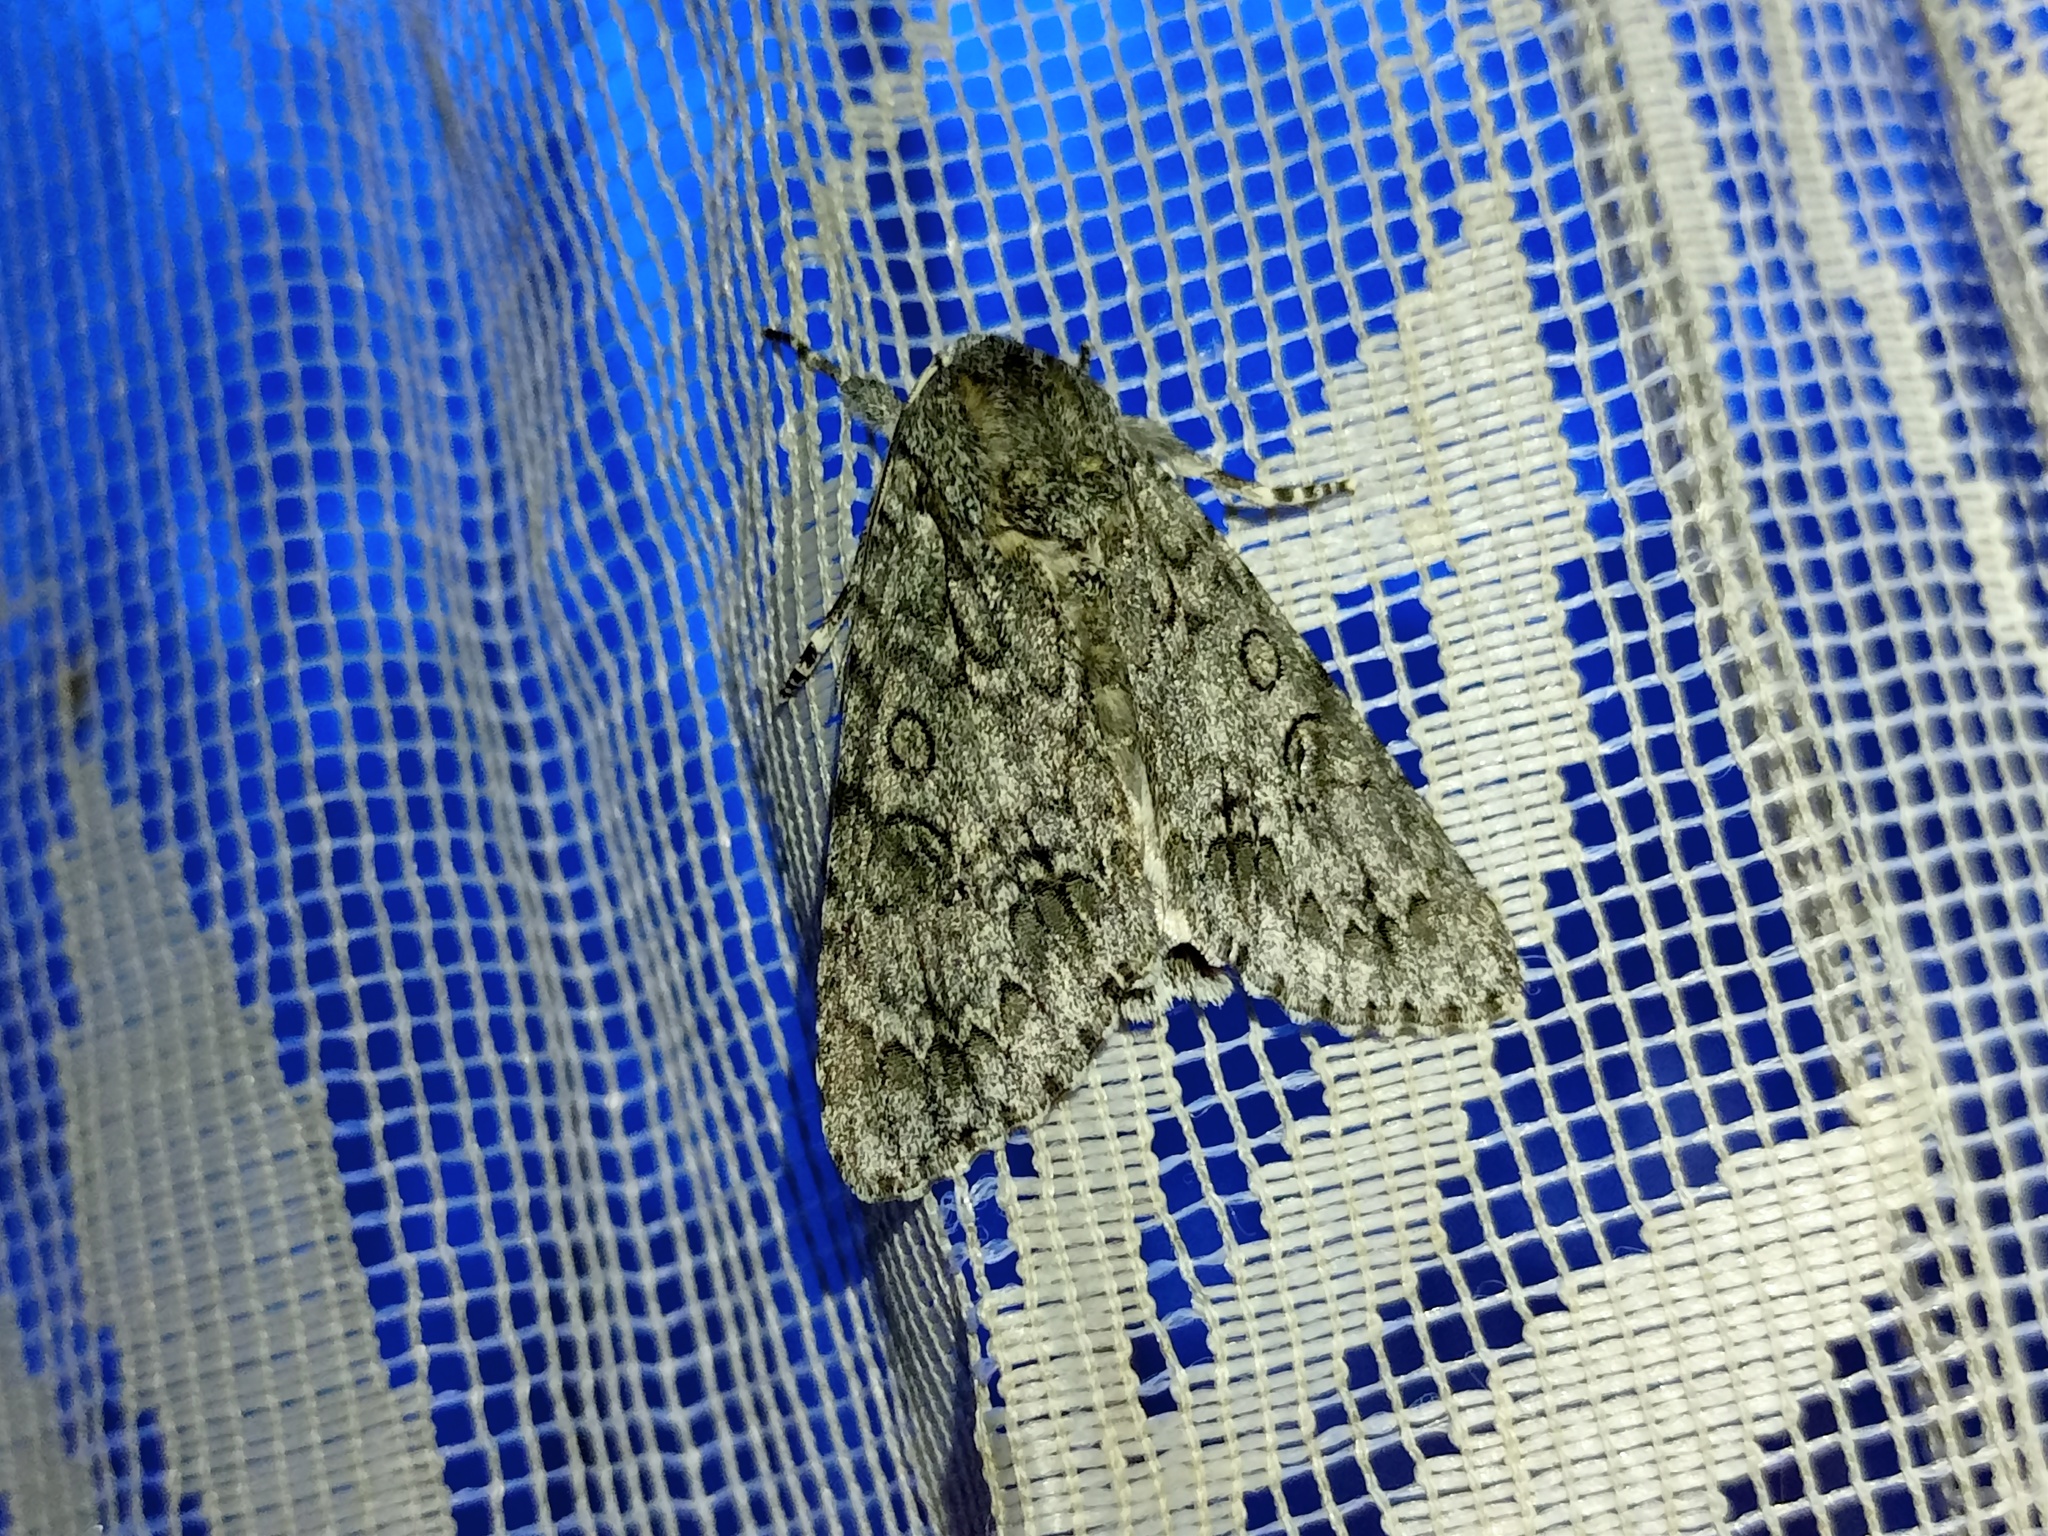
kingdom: Animalia
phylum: Arthropoda
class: Insecta
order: Lepidoptera
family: Noctuidae
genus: Acronicta
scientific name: Acronicta aceris
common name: Sycamore
